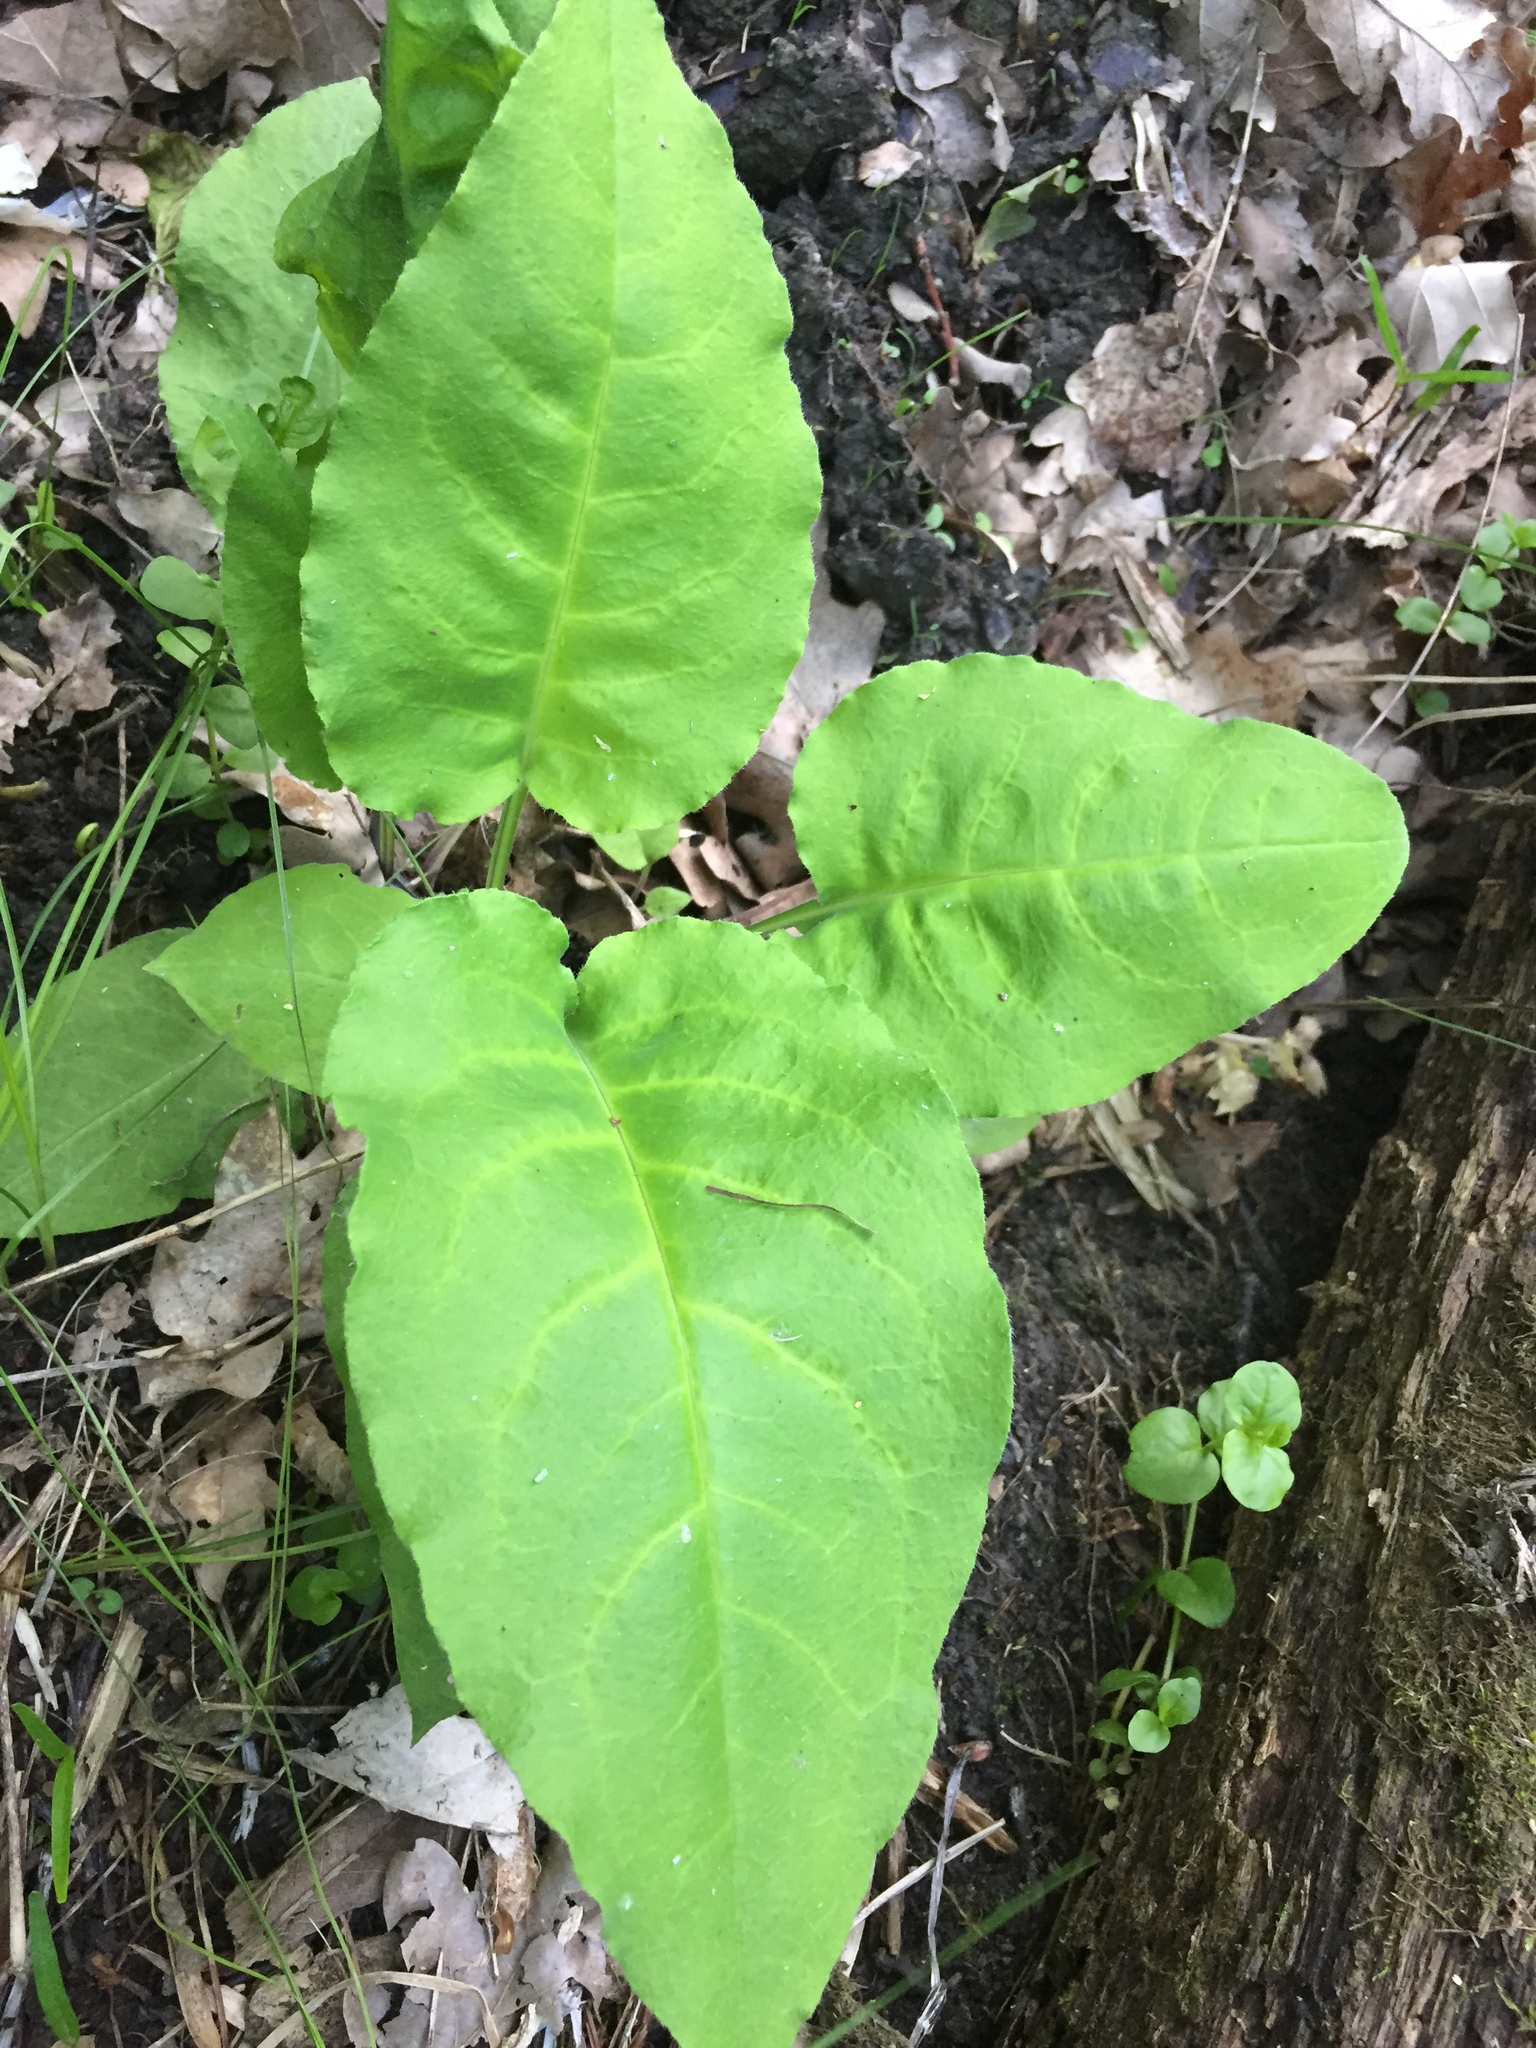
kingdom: Plantae
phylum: Tracheophyta
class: Magnoliopsida
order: Boraginales
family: Boraginaceae
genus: Pulmonaria
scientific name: Pulmonaria obscura
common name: Suffolk lungwort
